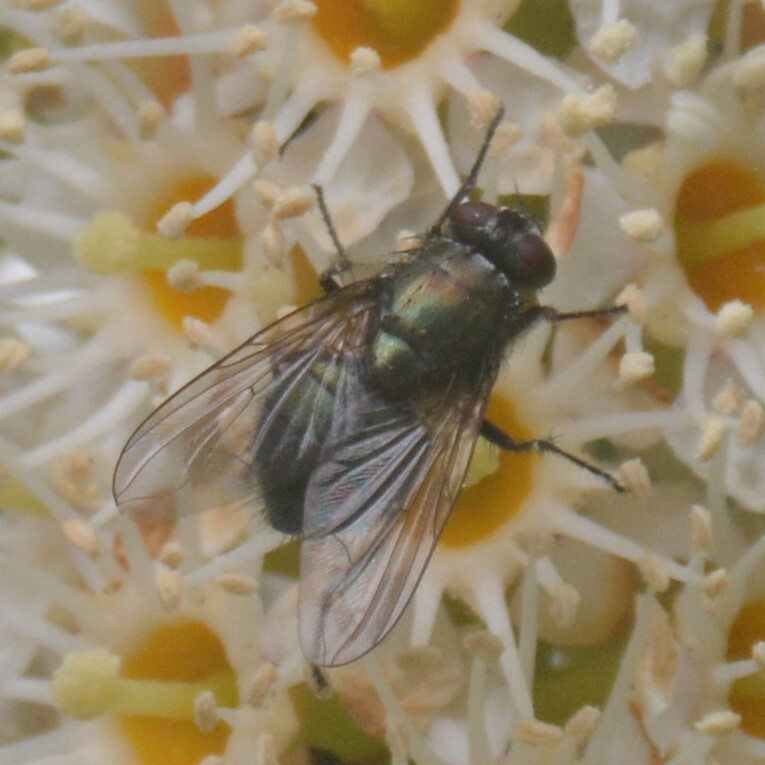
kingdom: Animalia
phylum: Arthropoda
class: Insecta
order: Diptera
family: Muscidae
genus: Dasyphora
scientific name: Dasyphora cyanella
